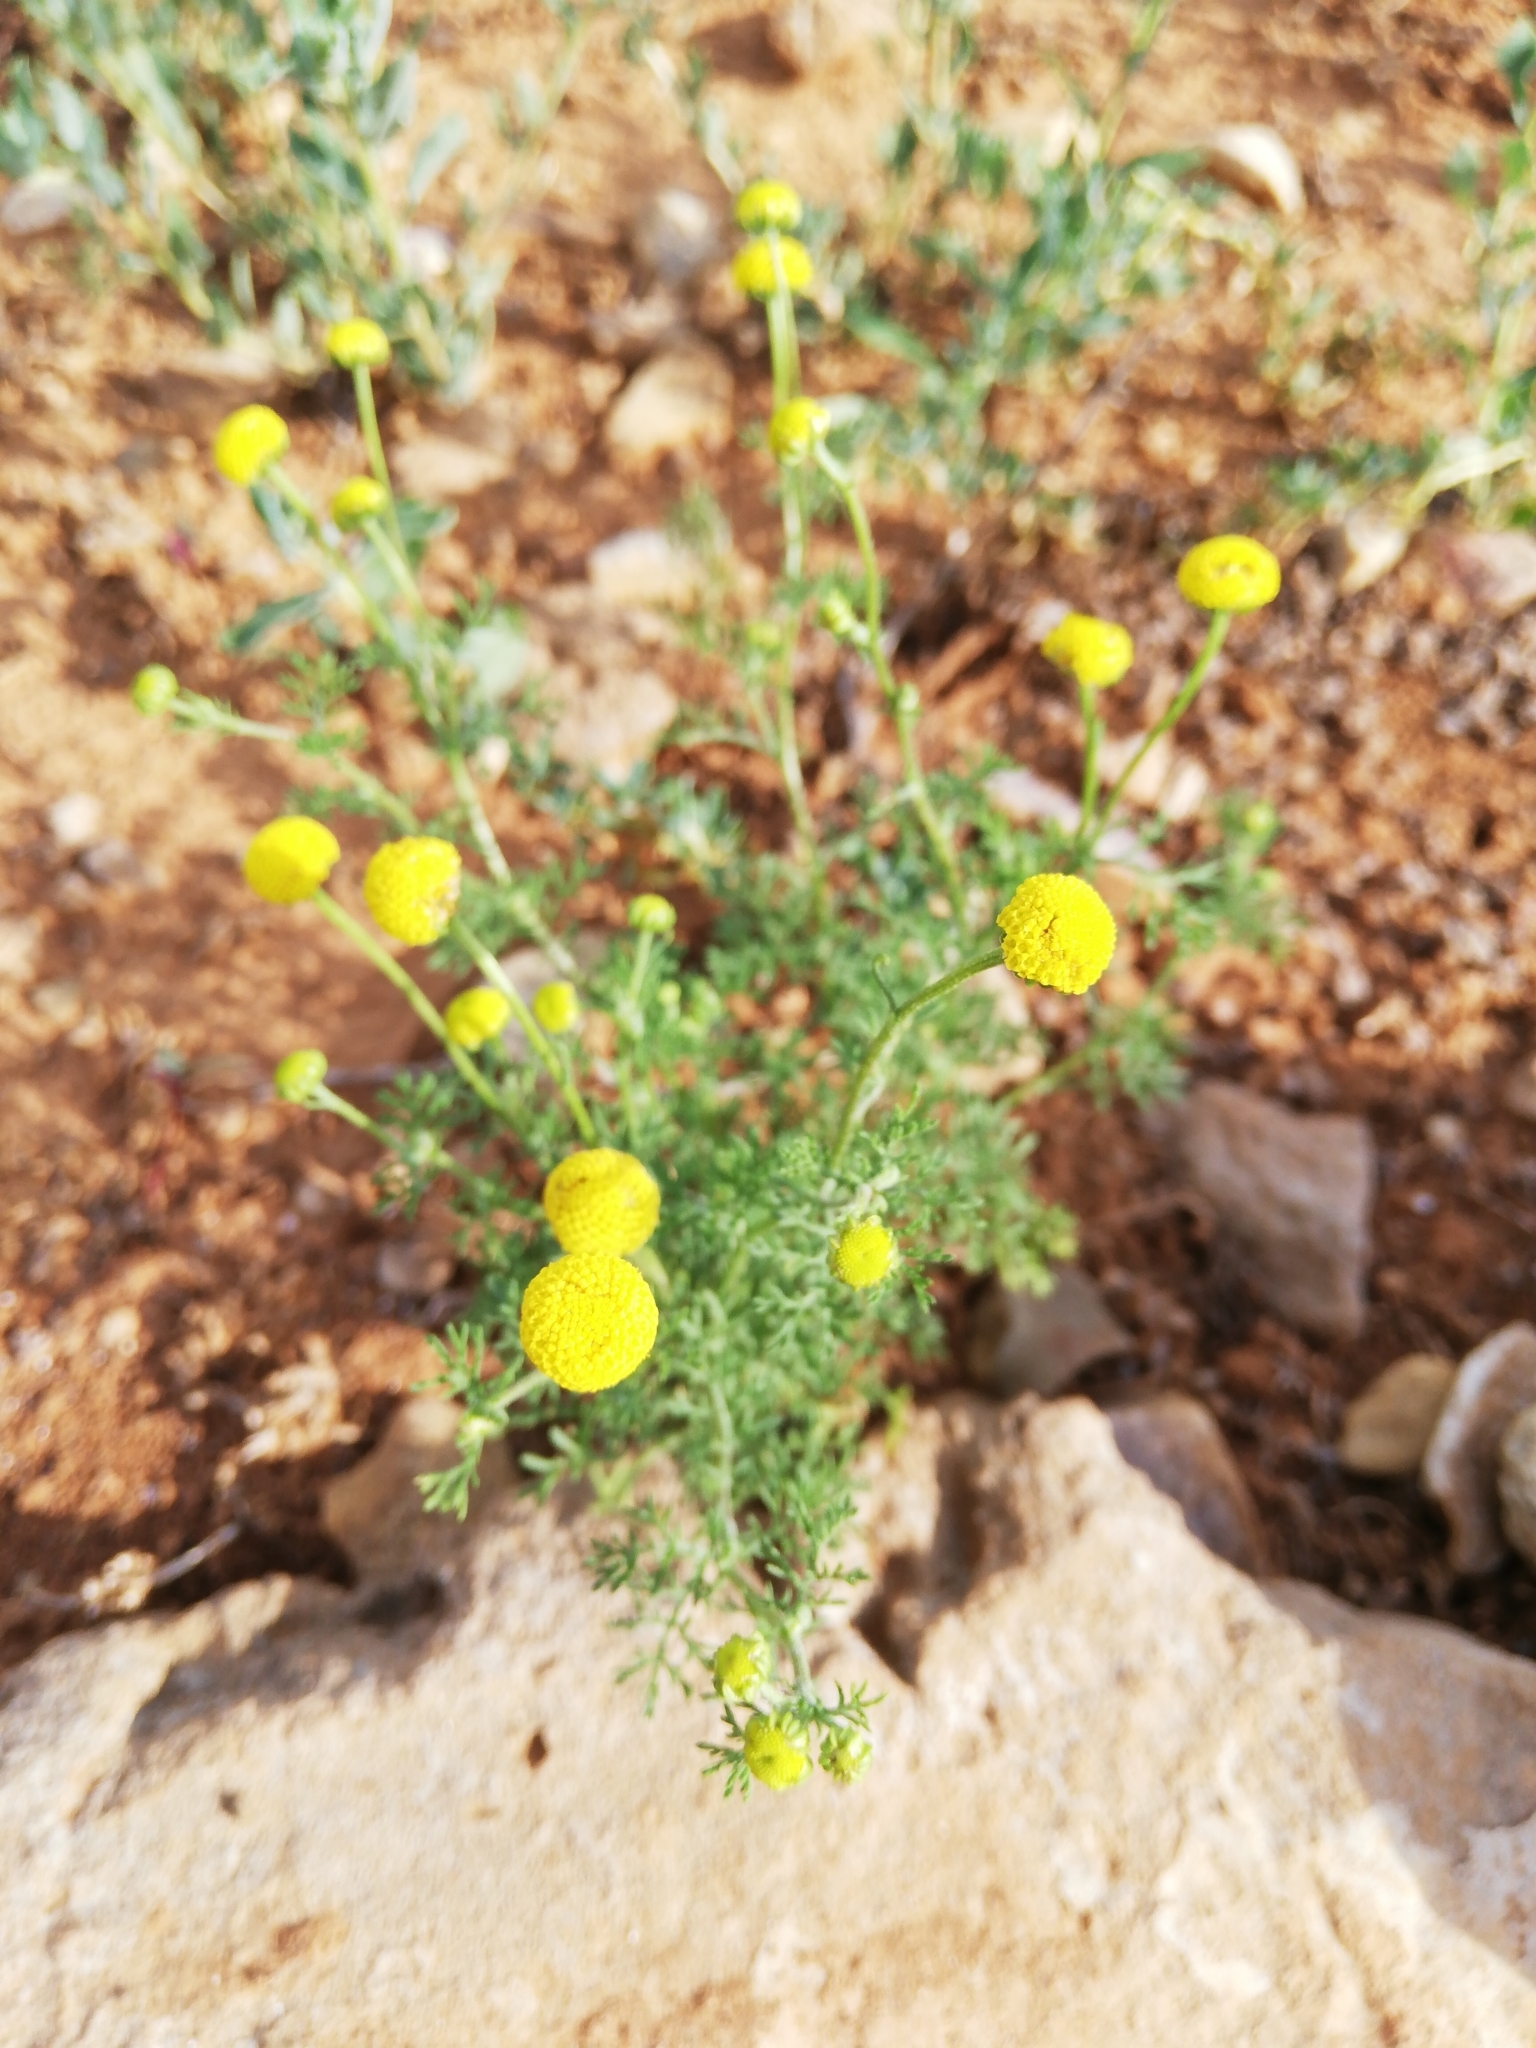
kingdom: Plantae
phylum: Tracheophyta
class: Magnoliopsida
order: Asterales
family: Asteraceae
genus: Oncosiphon
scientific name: Oncosiphon pilulifer
